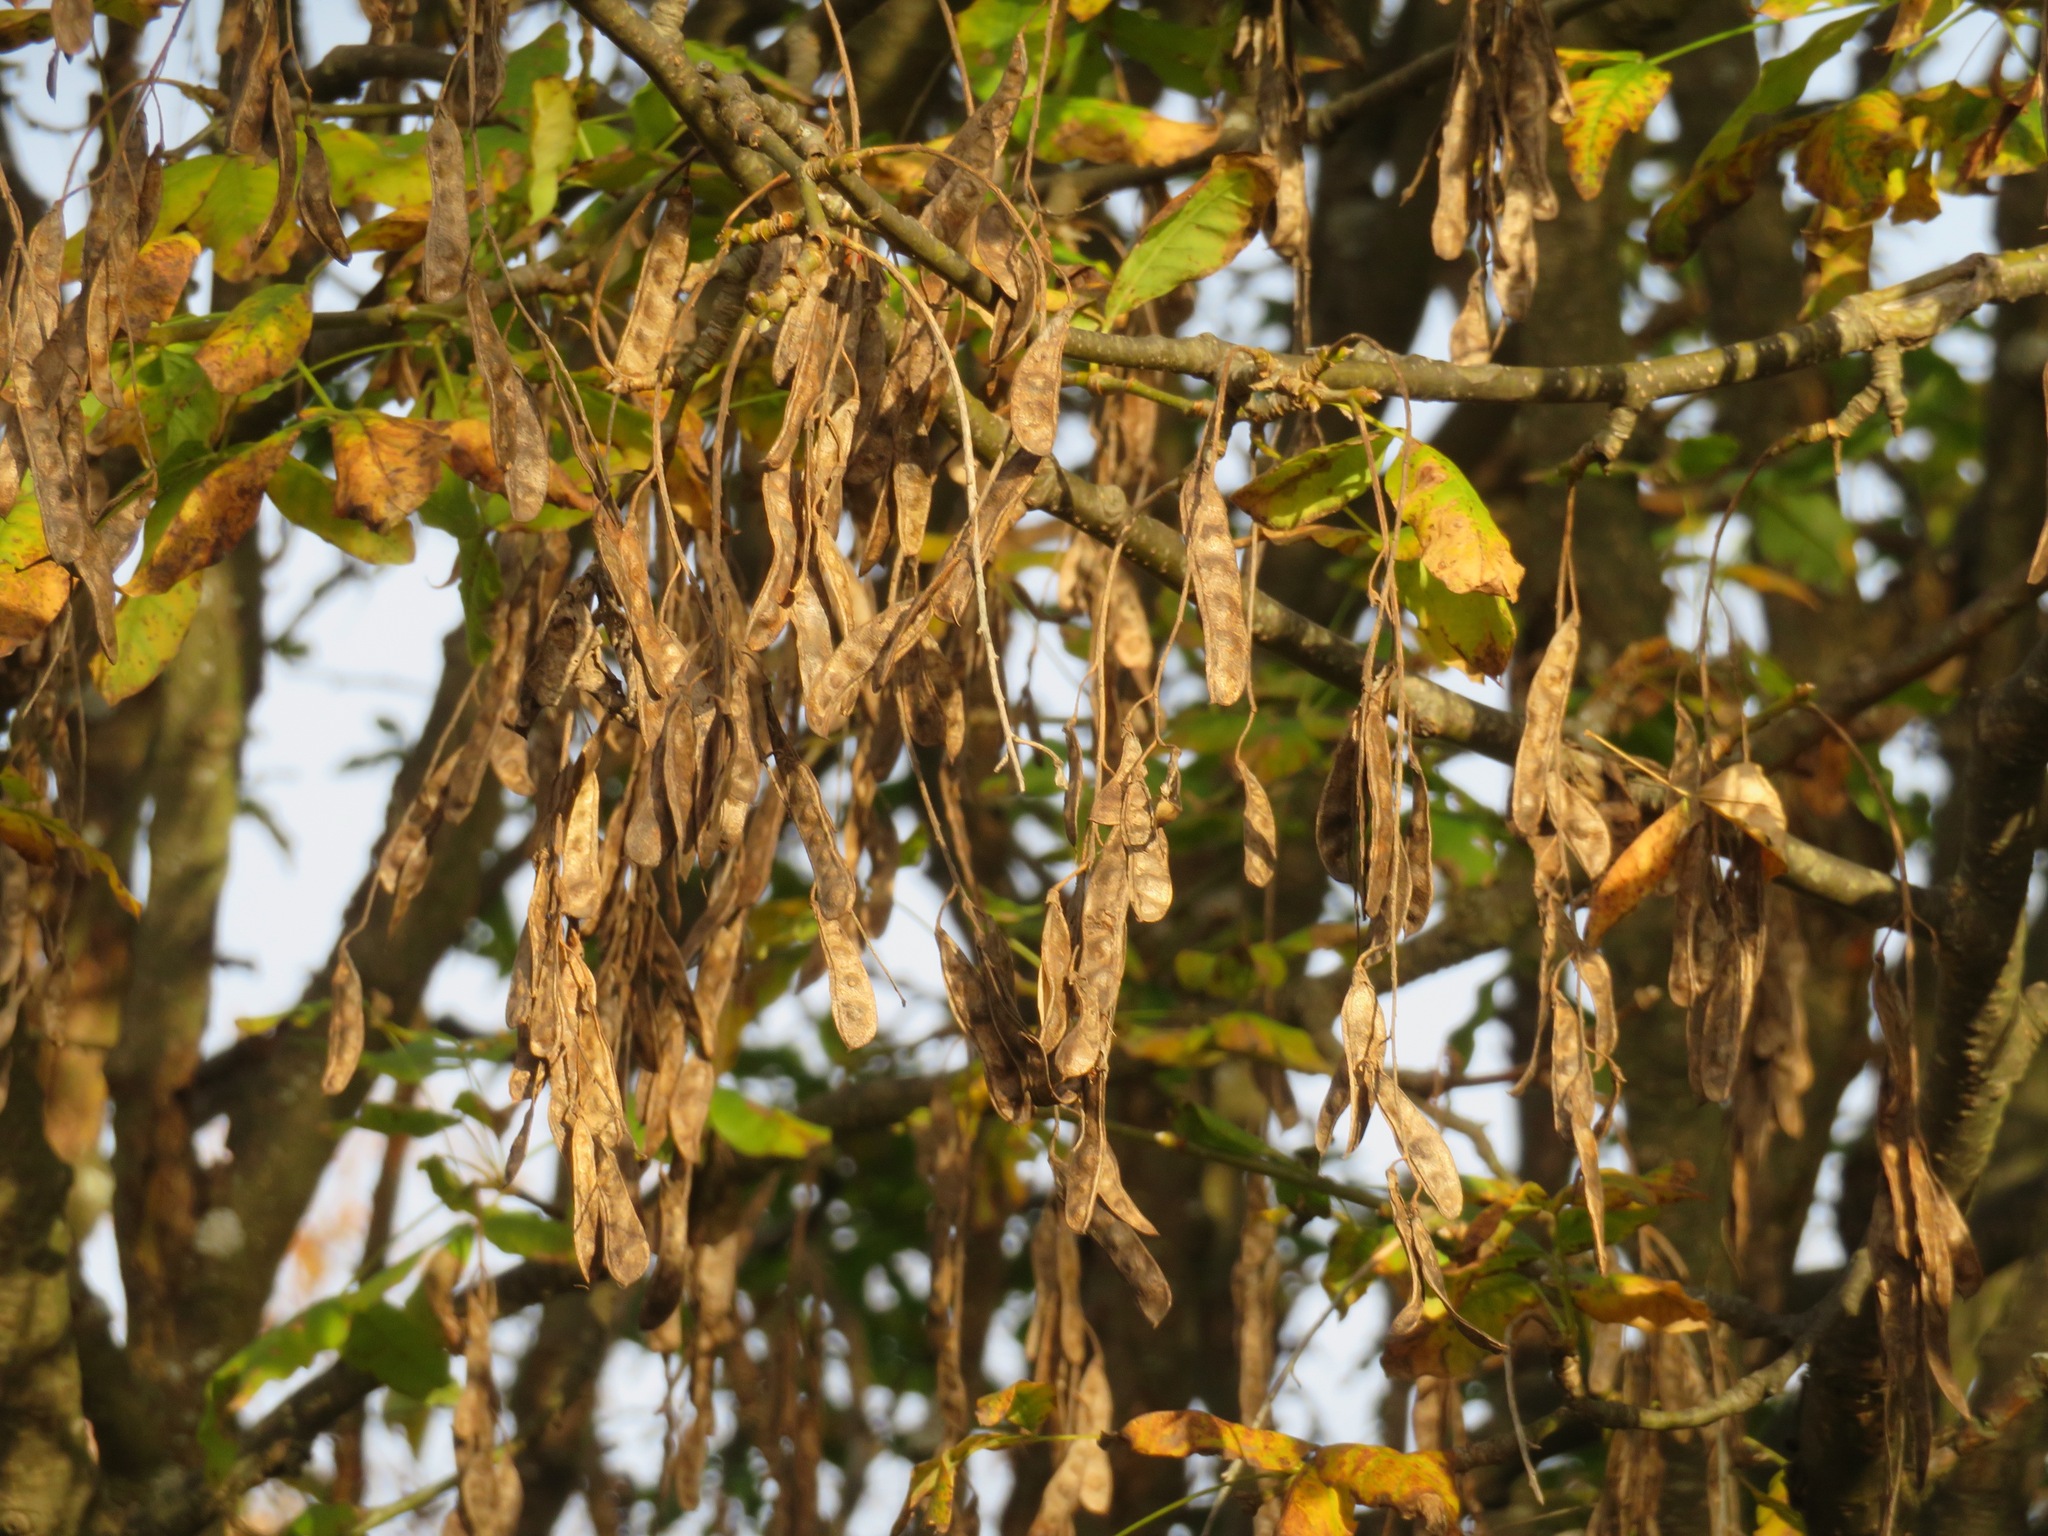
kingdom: Plantae
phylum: Tracheophyta
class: Magnoliopsida
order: Fabales
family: Fabaceae
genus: Laburnum
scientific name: Laburnum alpinum
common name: Scottish laburnum
